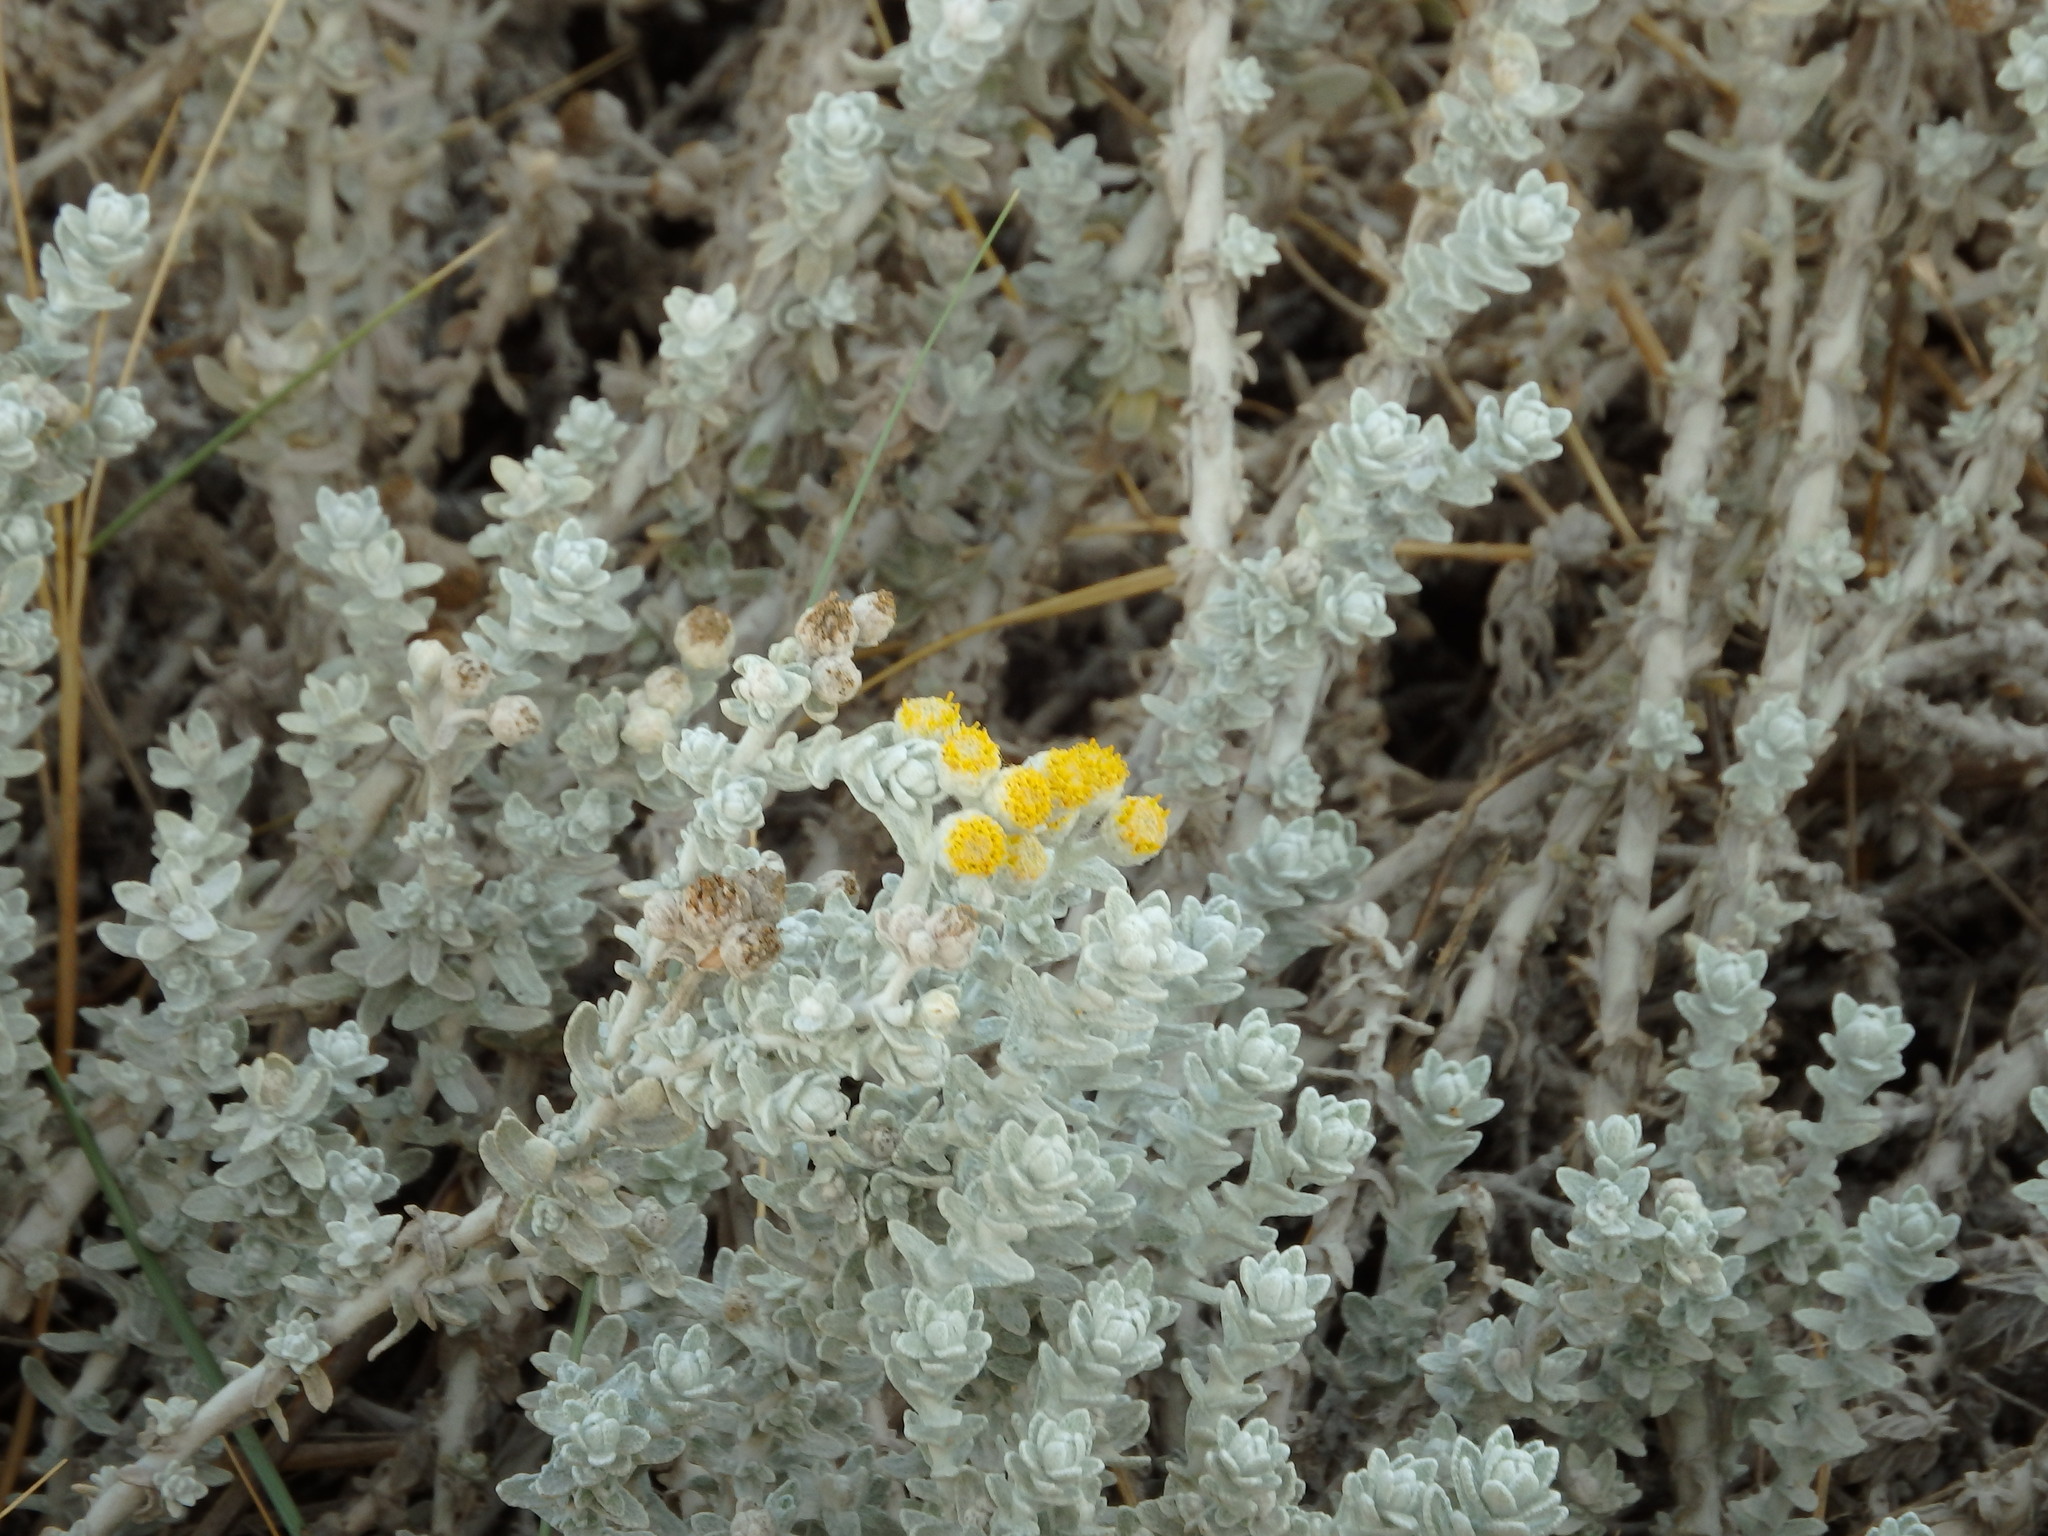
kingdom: Plantae
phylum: Tracheophyta
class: Magnoliopsida
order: Asterales
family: Asteraceae
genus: Achillea
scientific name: Achillea maritima
